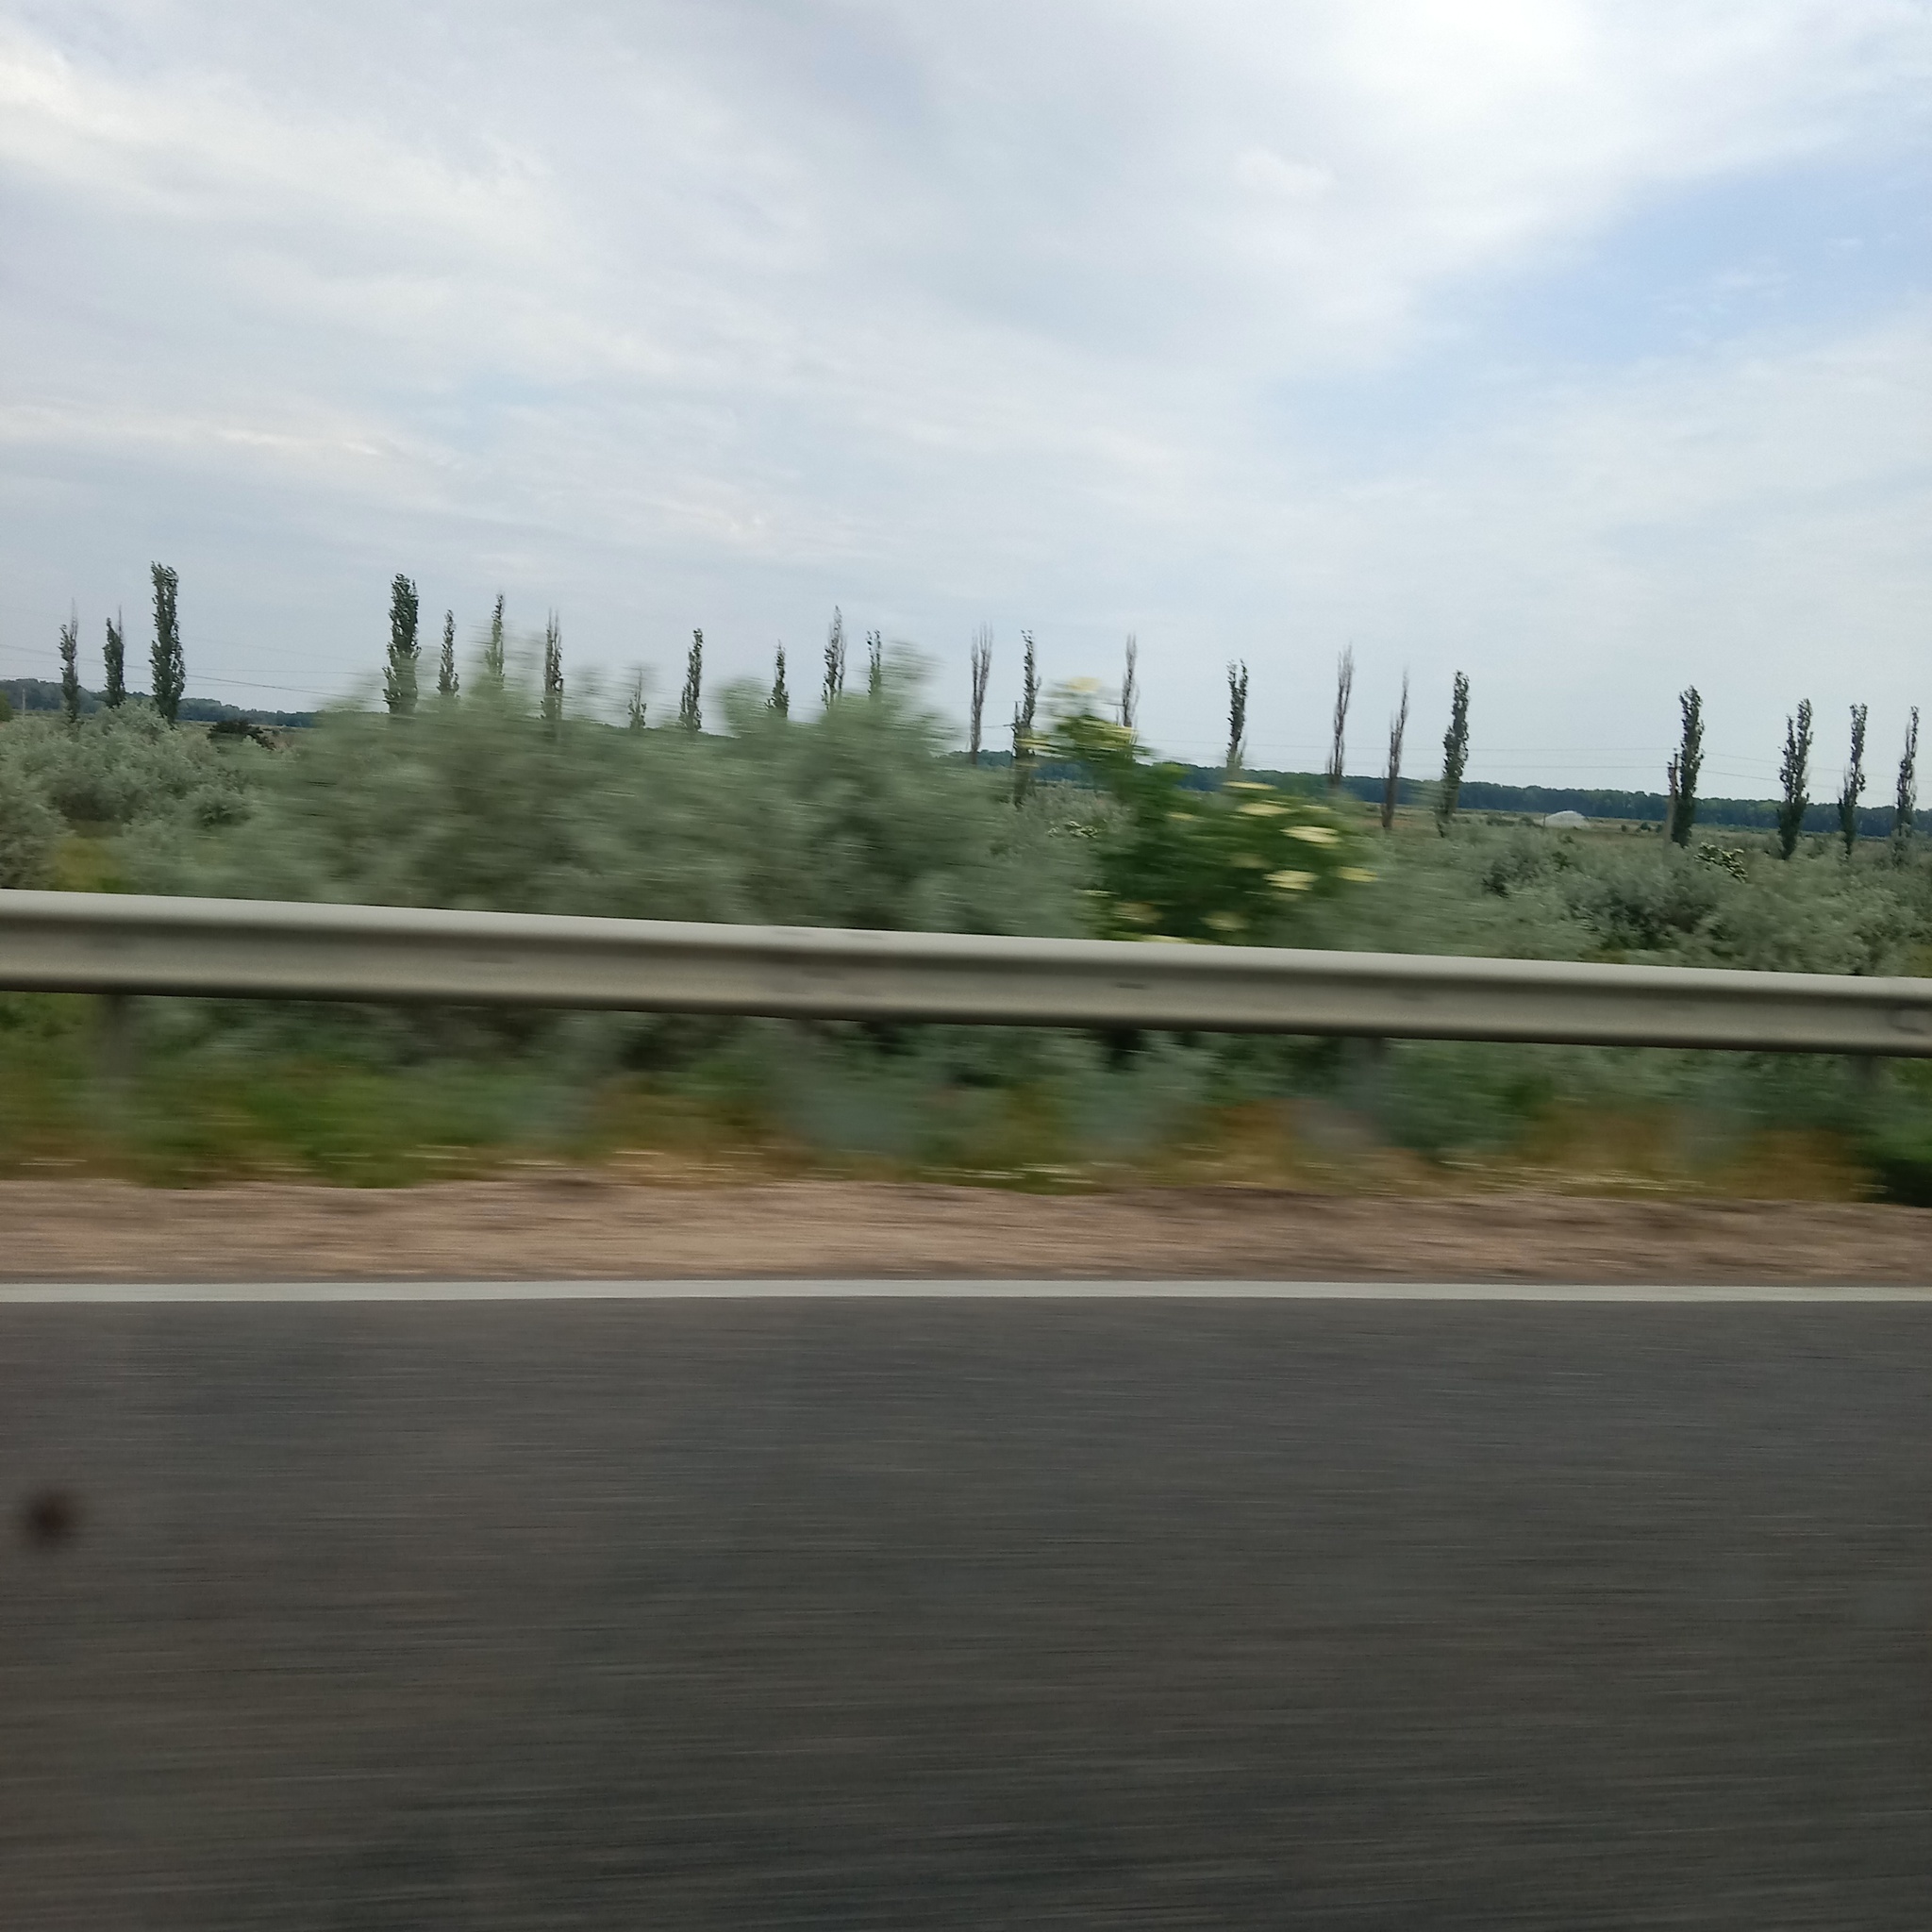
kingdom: Plantae
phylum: Tracheophyta
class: Magnoliopsida
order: Rosales
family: Elaeagnaceae
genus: Elaeagnus
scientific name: Elaeagnus angustifolia
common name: Russian olive
